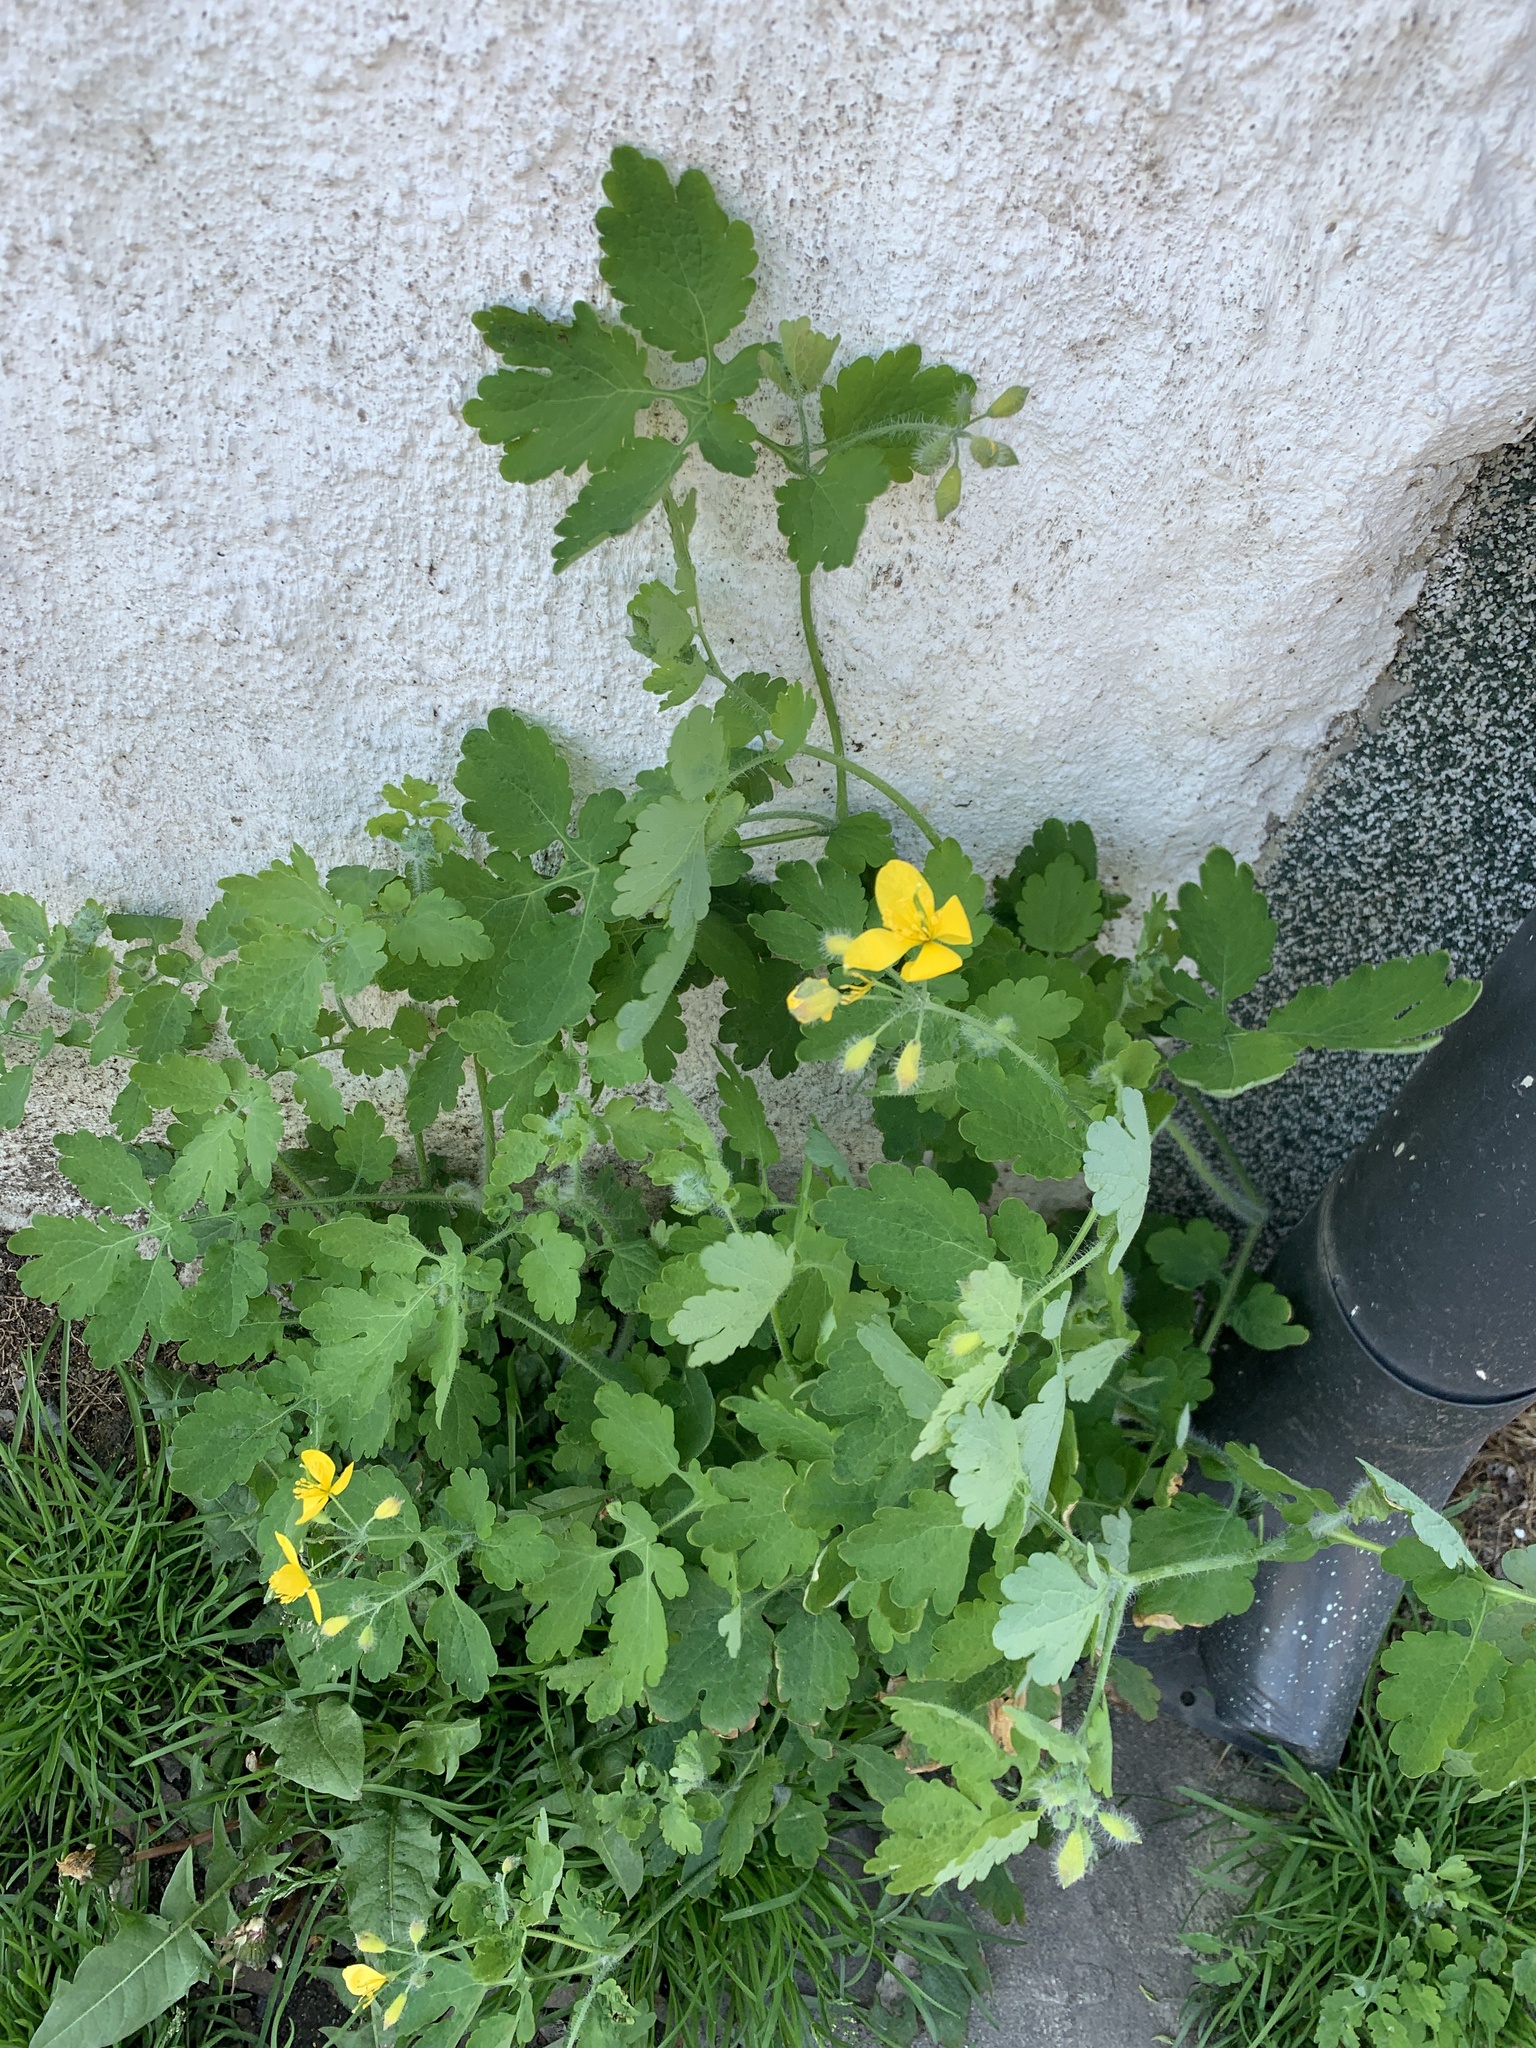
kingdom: Plantae
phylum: Tracheophyta
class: Magnoliopsida
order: Ranunculales
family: Papaveraceae
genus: Chelidonium
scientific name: Chelidonium majus
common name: Greater celandine
